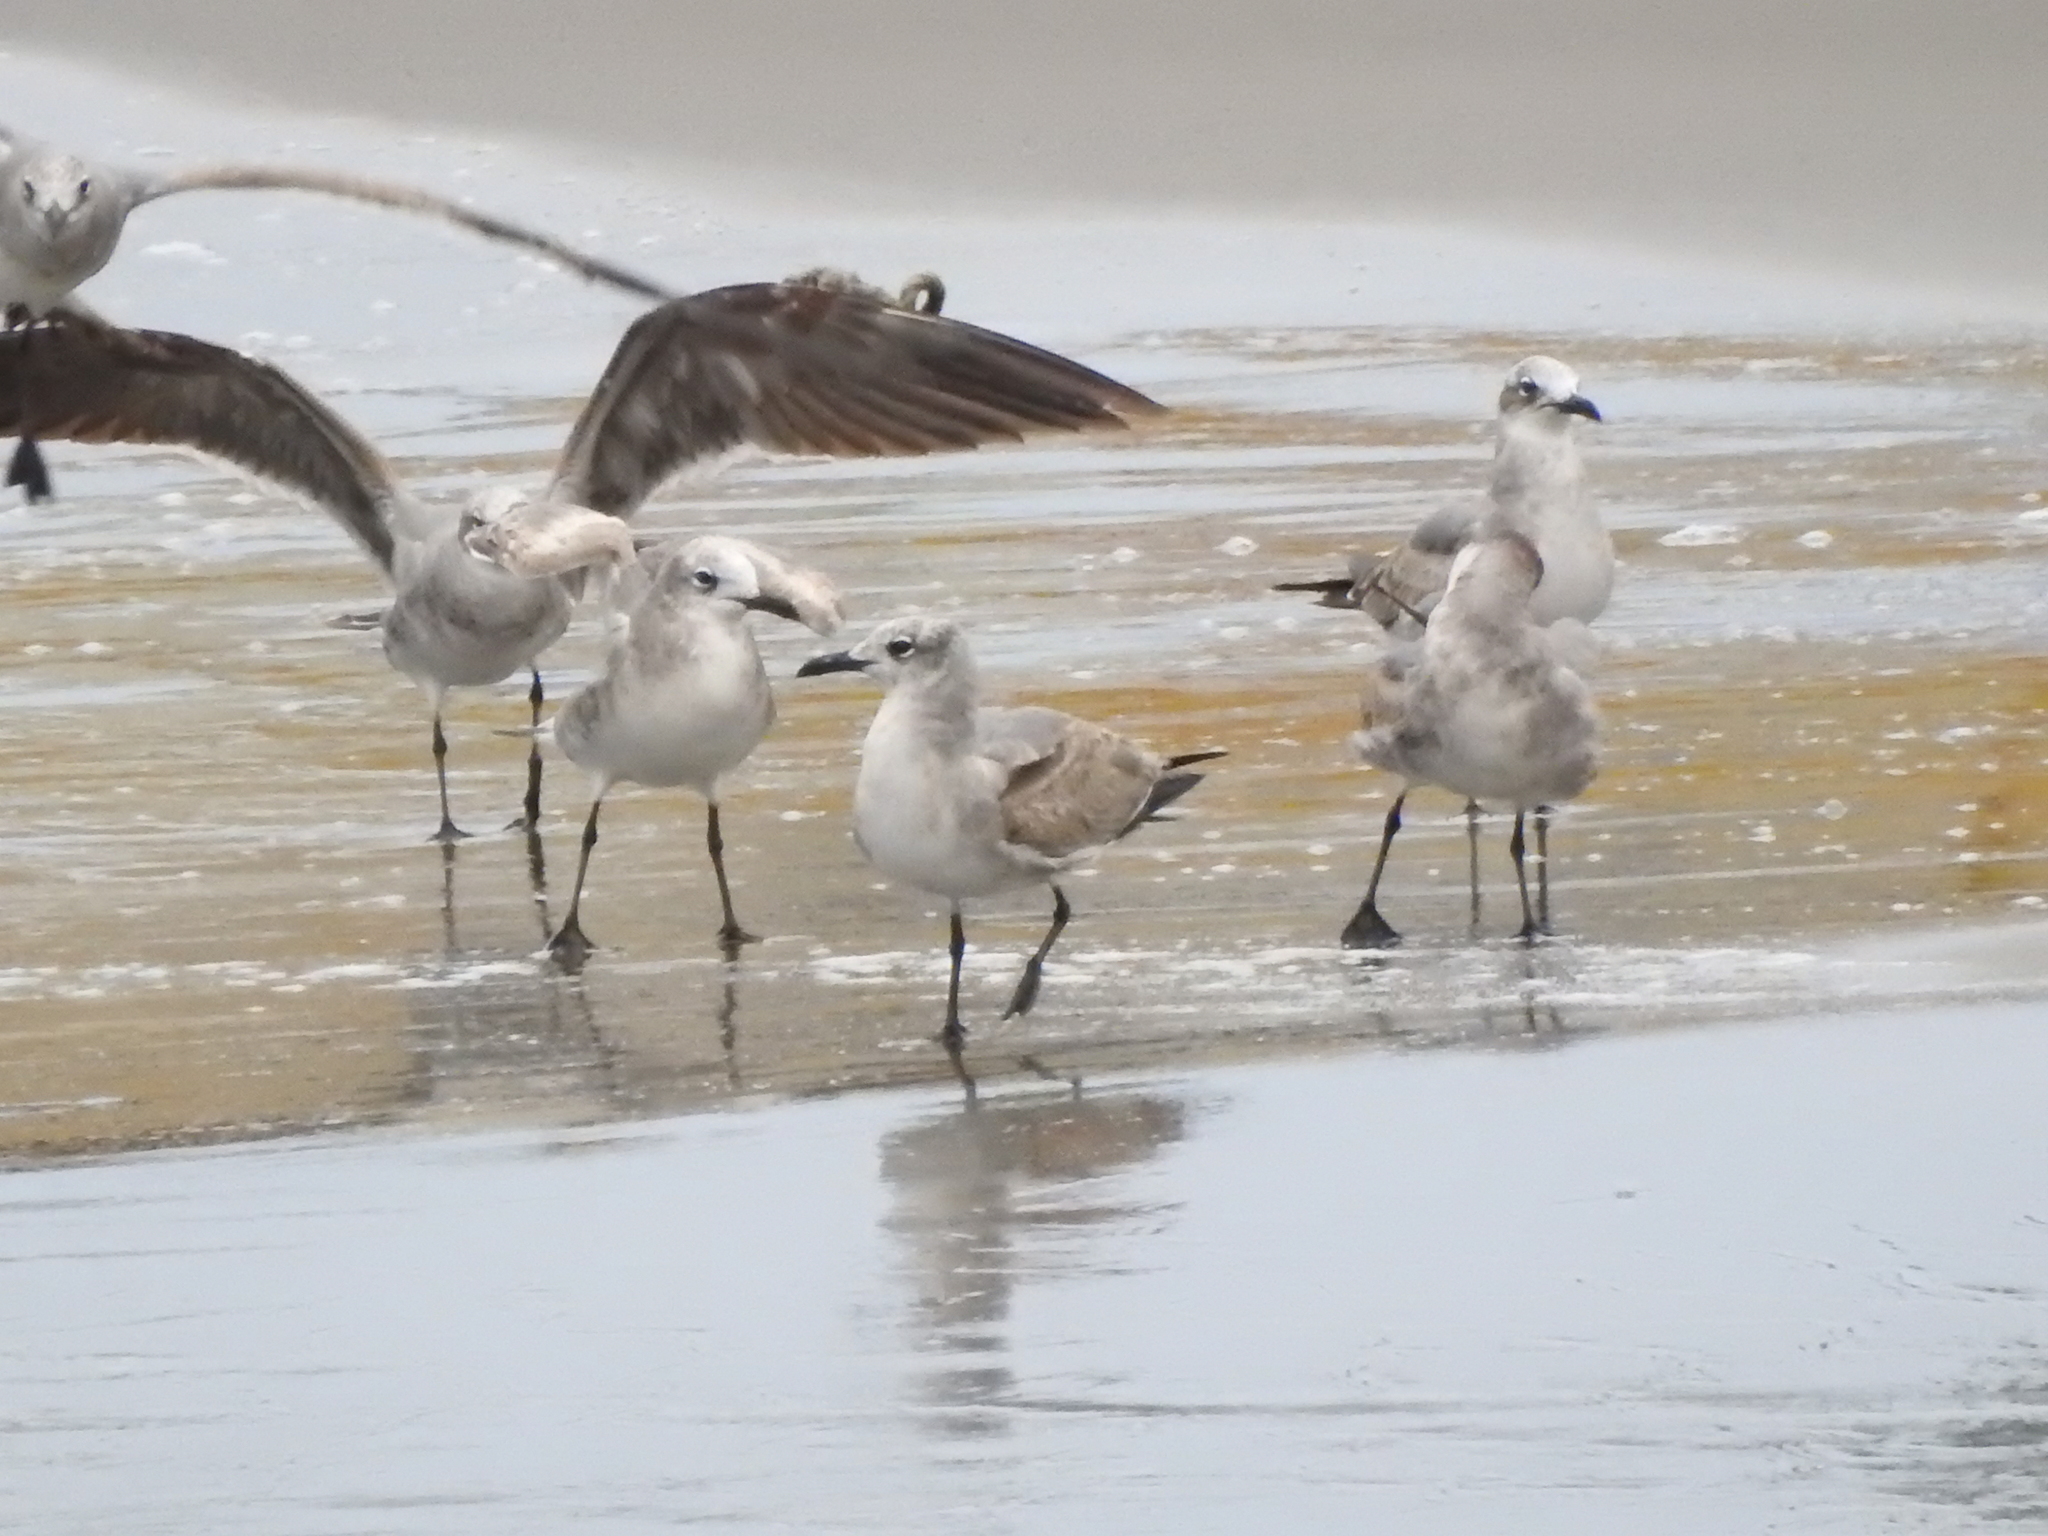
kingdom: Animalia
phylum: Chordata
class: Aves
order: Charadriiformes
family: Laridae
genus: Leucophaeus
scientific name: Leucophaeus atricilla
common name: Laughing gull
